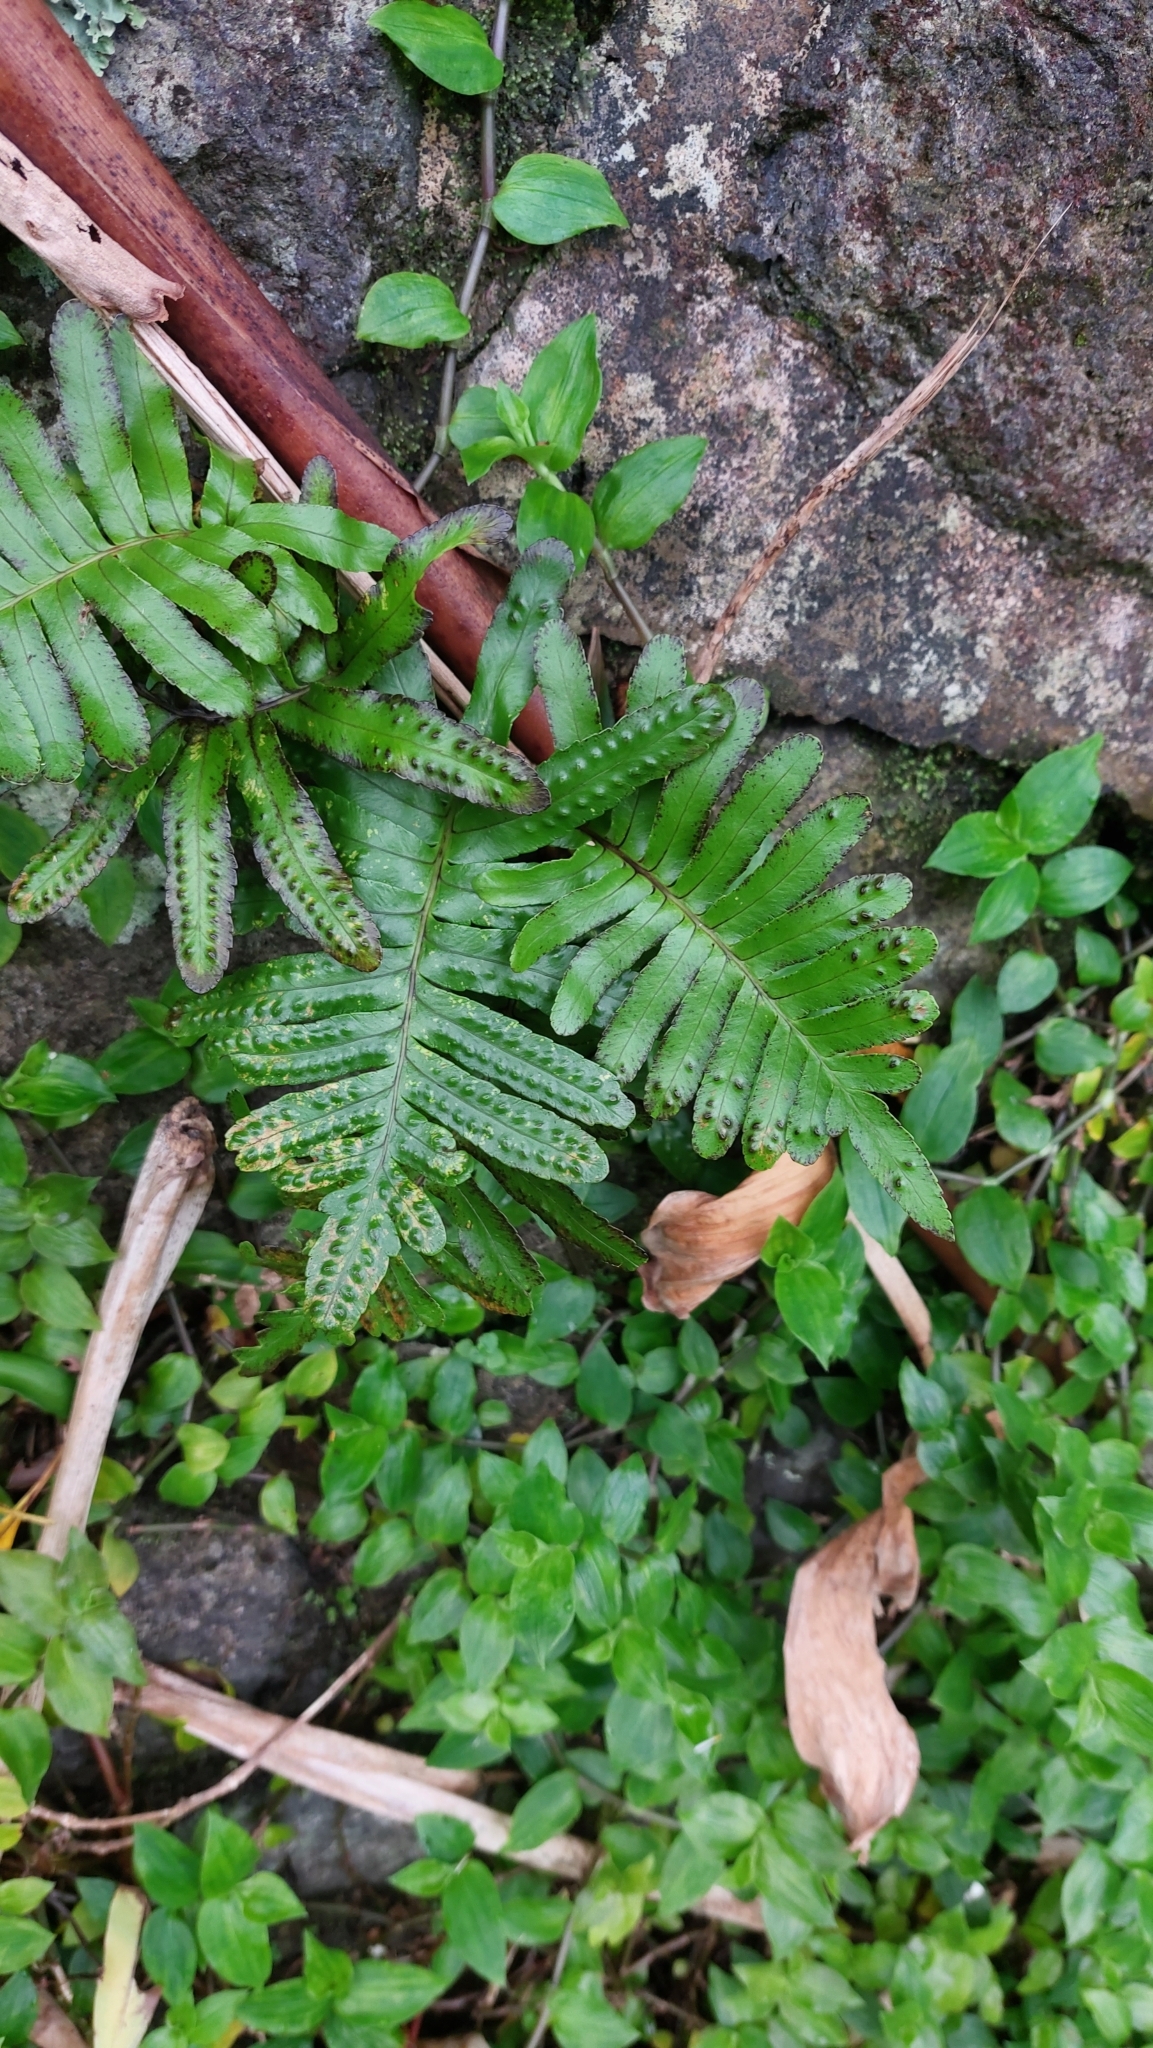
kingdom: Plantae
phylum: Tracheophyta
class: Polypodiopsida
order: Polypodiales
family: Polypodiaceae
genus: Polypodium
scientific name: Polypodium macaronesicum
